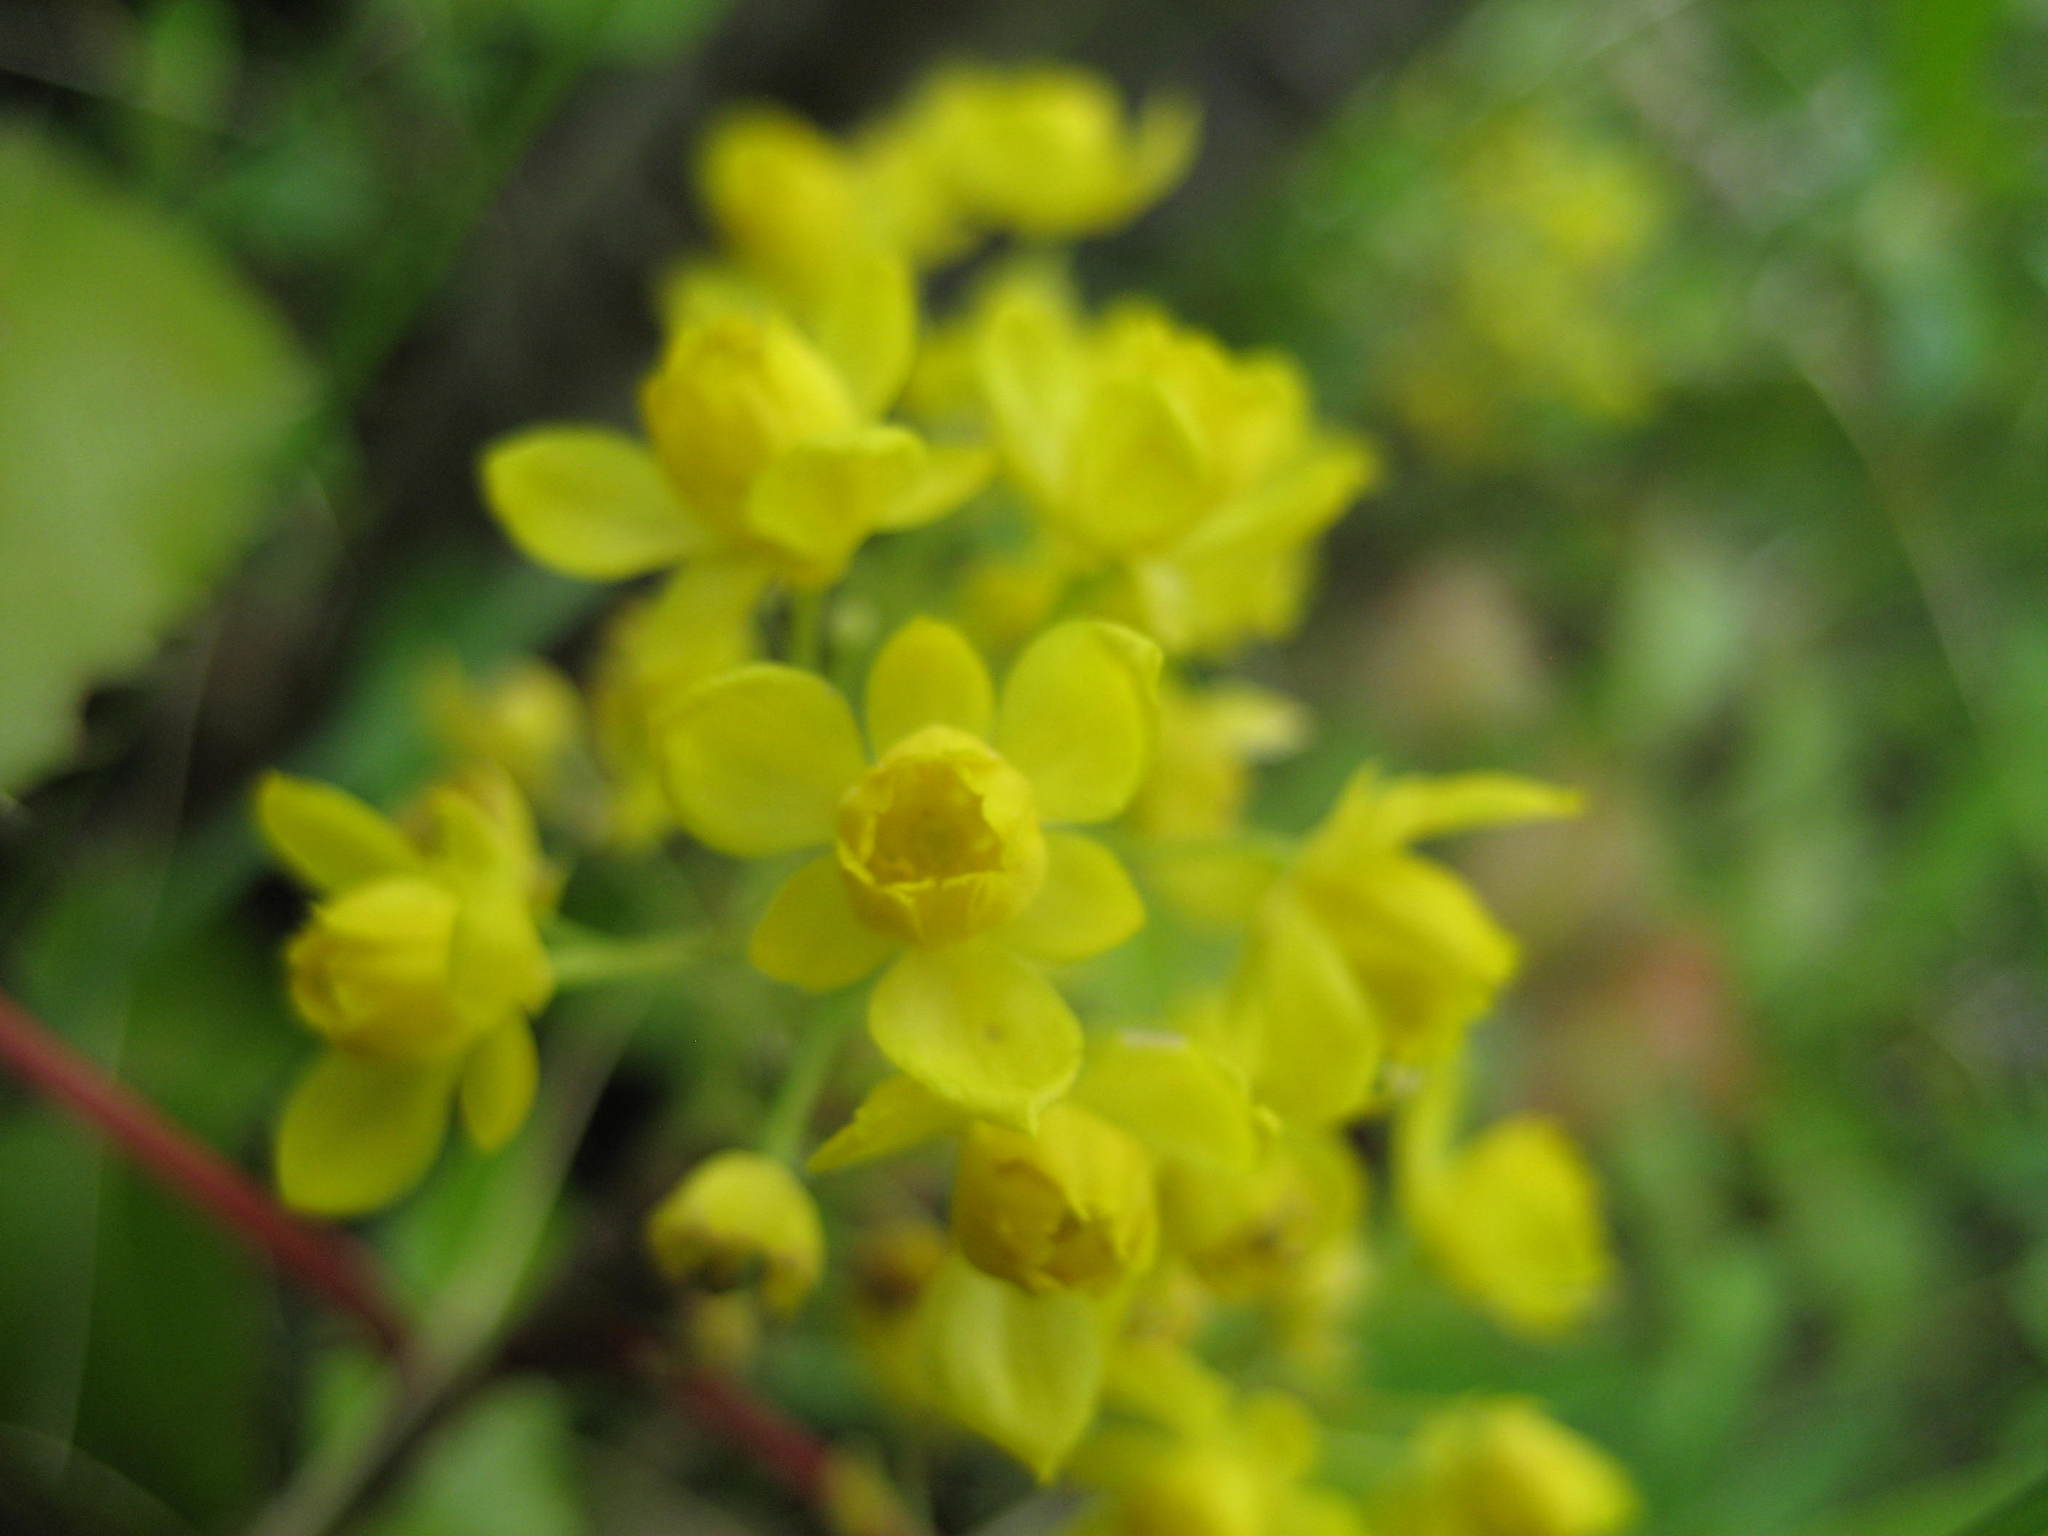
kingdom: Plantae
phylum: Tracheophyta
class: Magnoliopsida
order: Ranunculales
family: Berberidaceae
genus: Mahonia
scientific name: Mahonia aquifolium
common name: Oregon-grape
